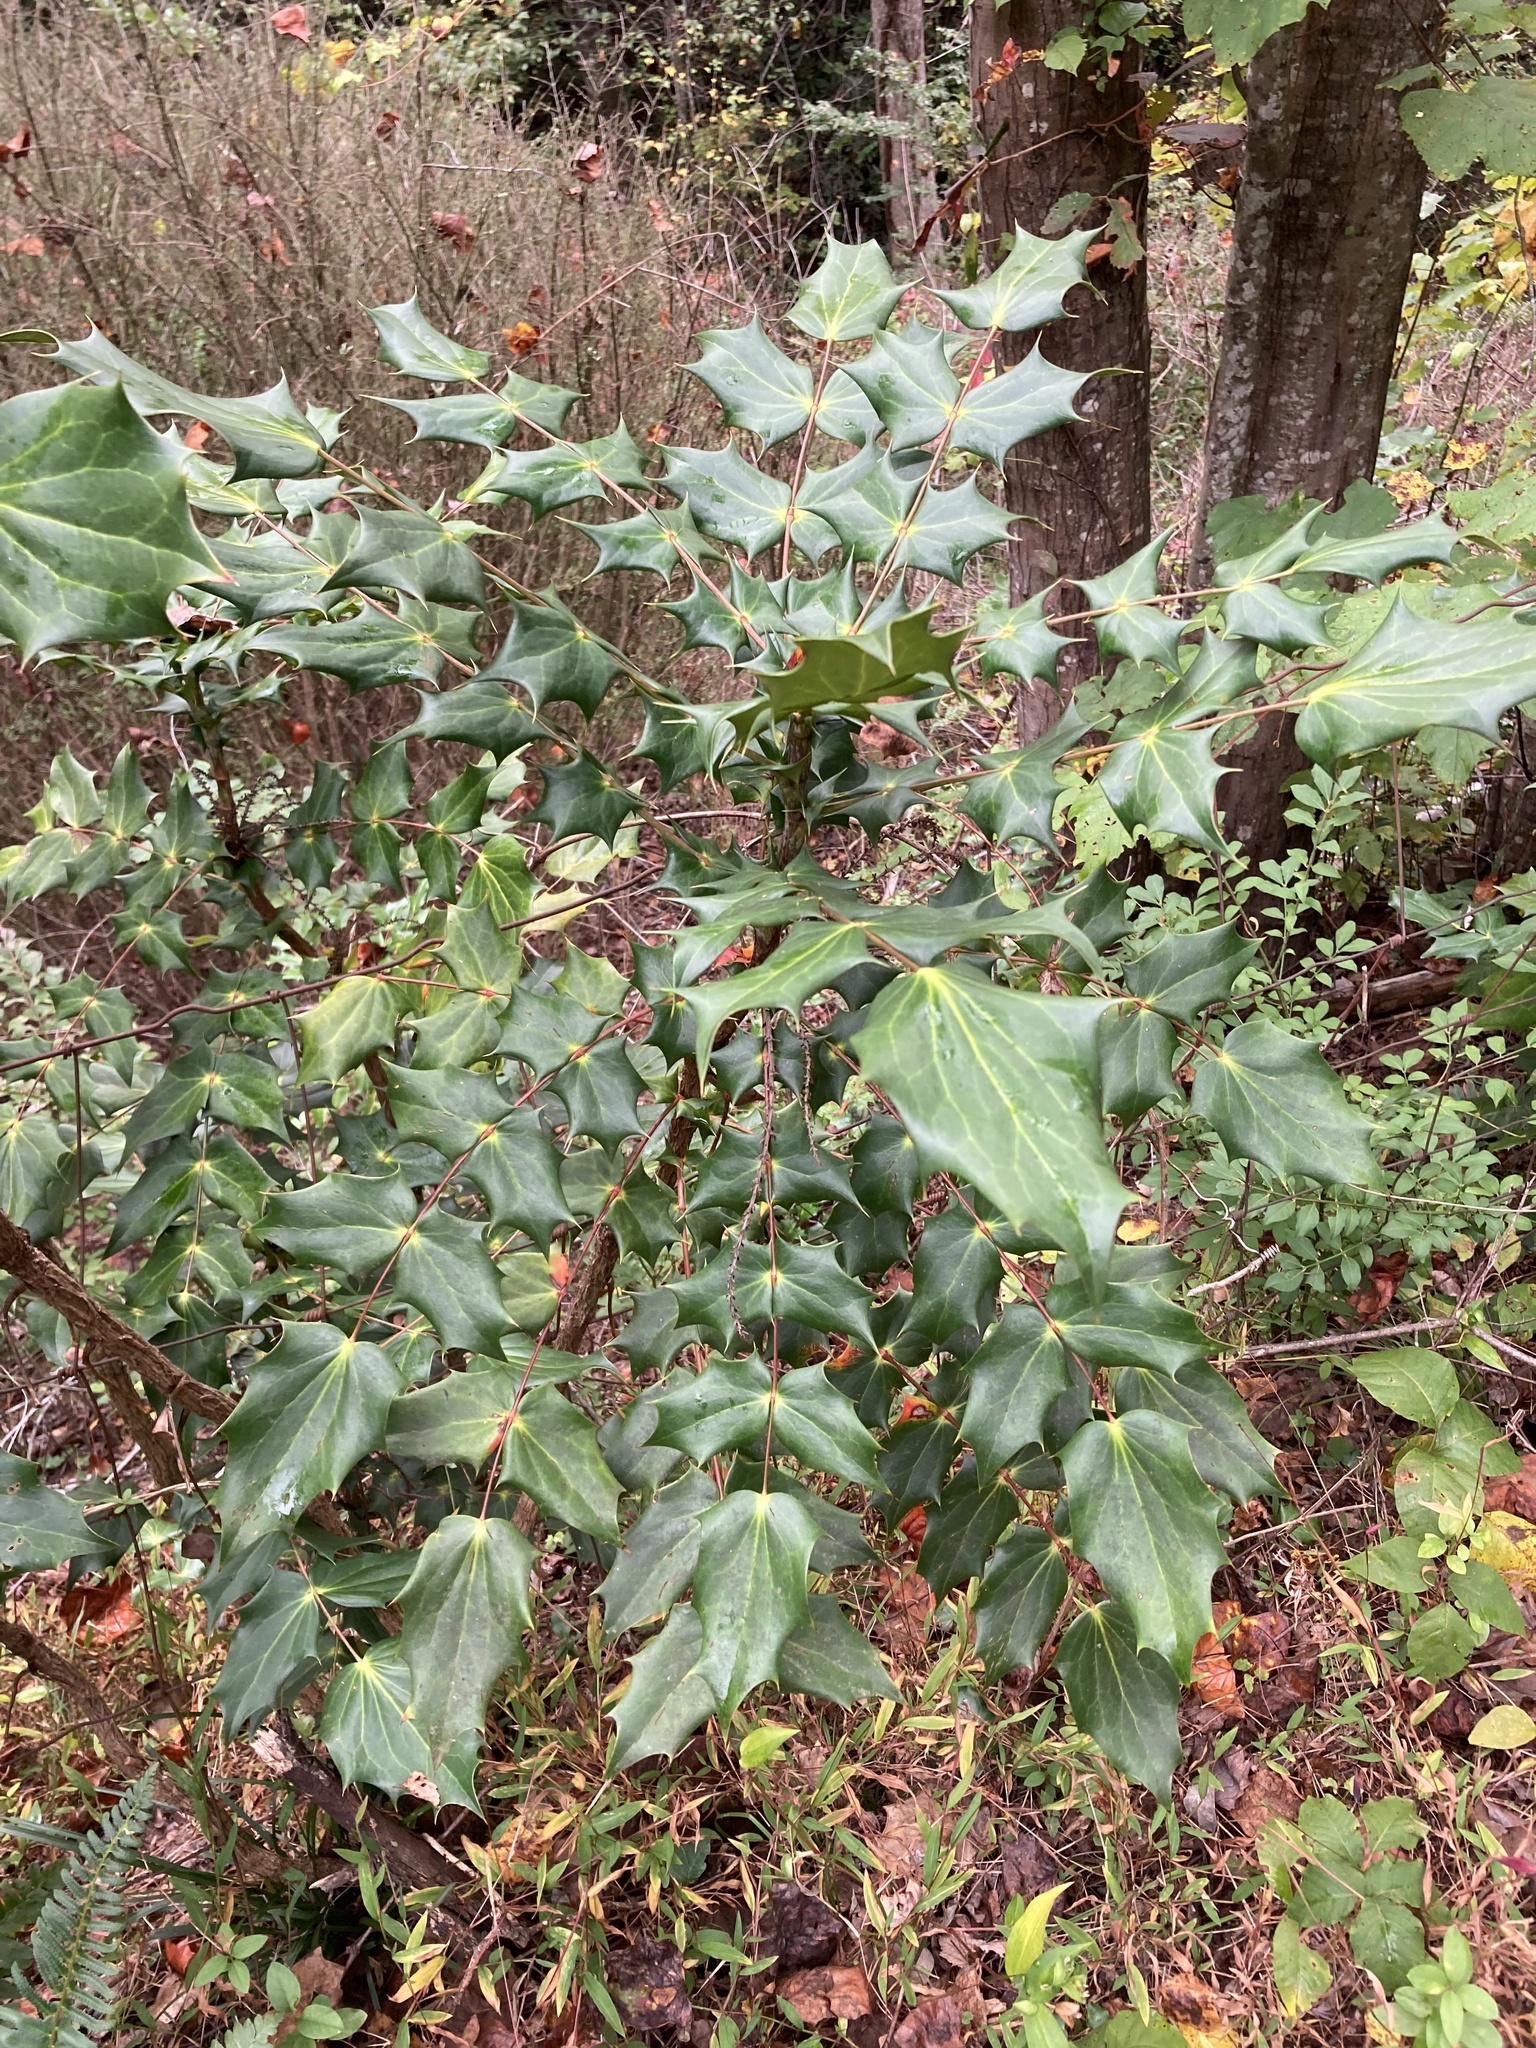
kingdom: Plantae
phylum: Tracheophyta
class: Magnoliopsida
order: Ranunculales
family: Berberidaceae
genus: Mahonia
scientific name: Mahonia bealei
